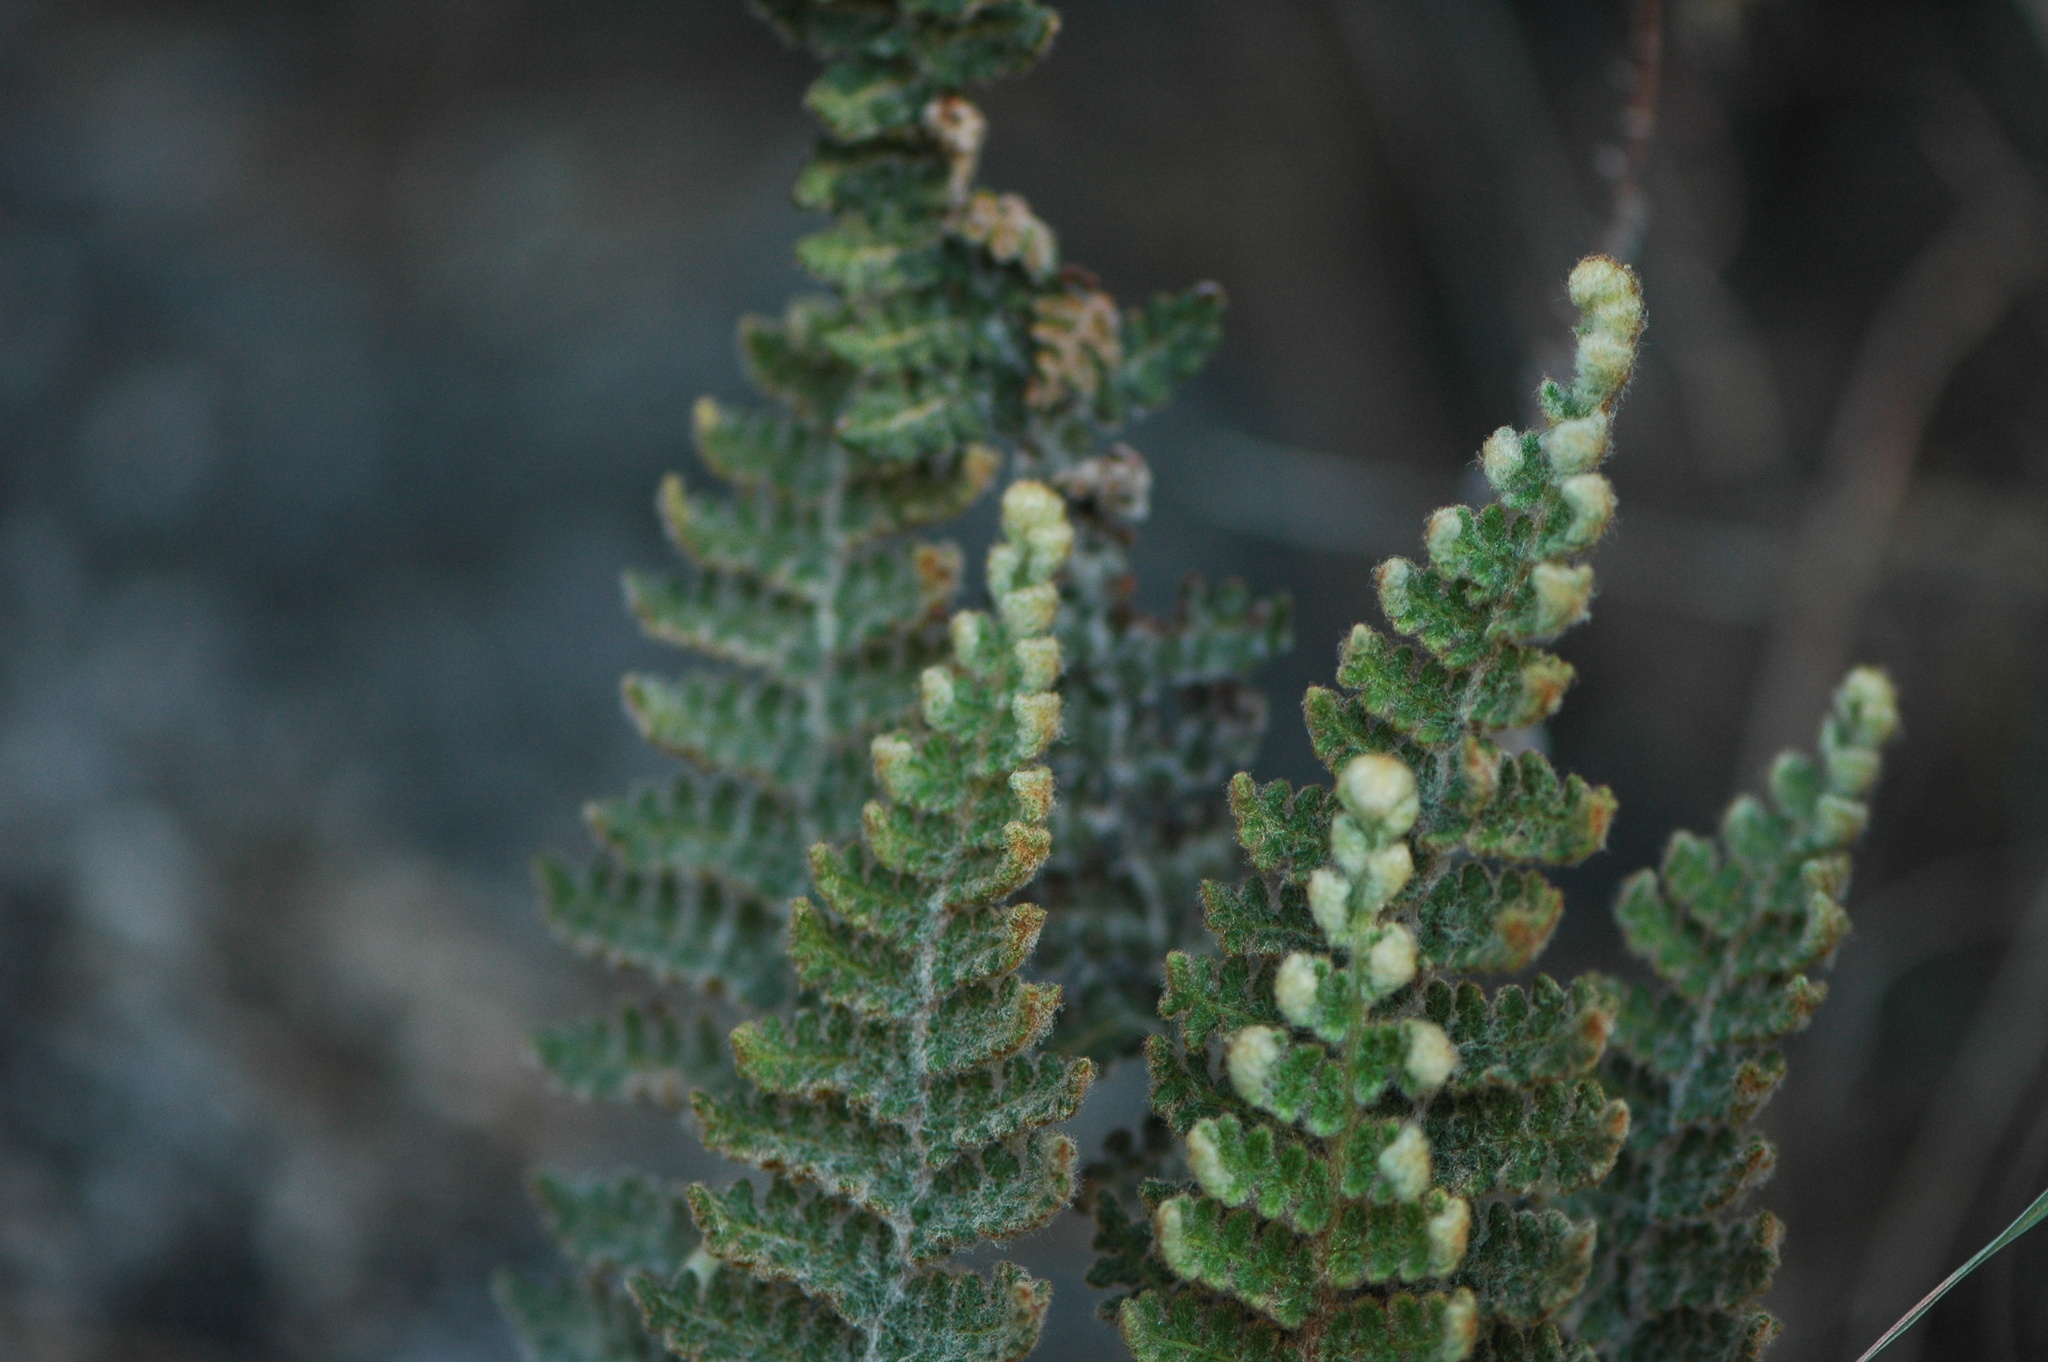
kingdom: Plantae
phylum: Tracheophyta
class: Polypodiopsida
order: Polypodiales
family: Pteridaceae
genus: Cosentinia
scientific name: Cosentinia vellea
